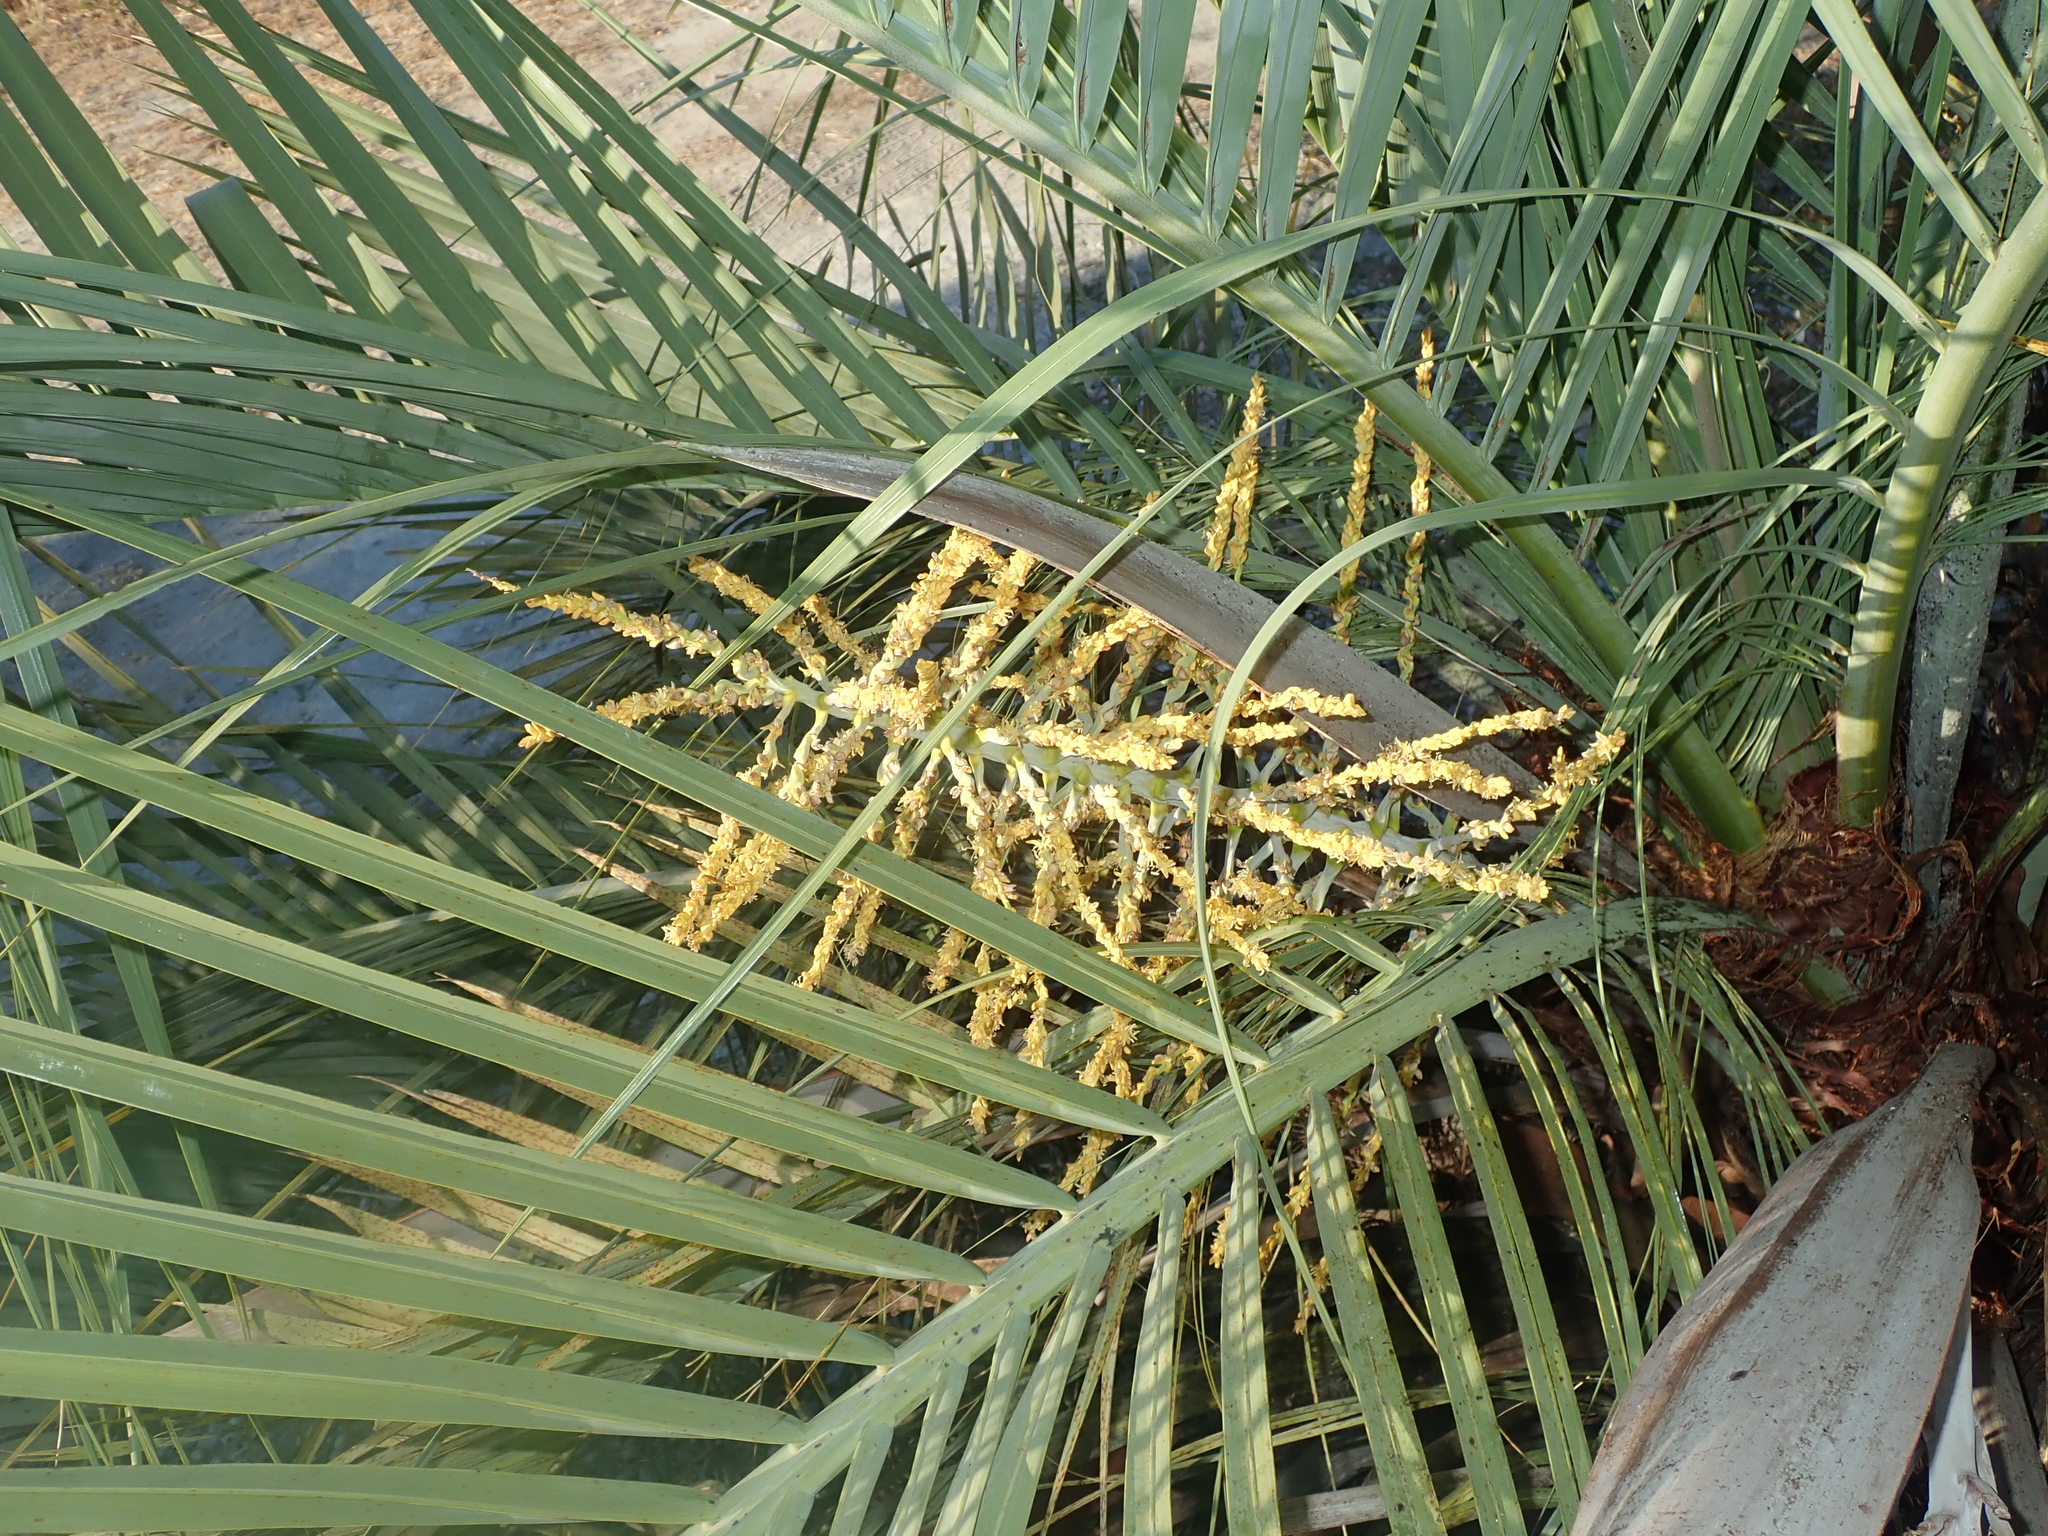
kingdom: Plantae
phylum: Tracheophyta
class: Liliopsida
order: Arecales
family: Arecaceae
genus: Butia
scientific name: Butia archeri
